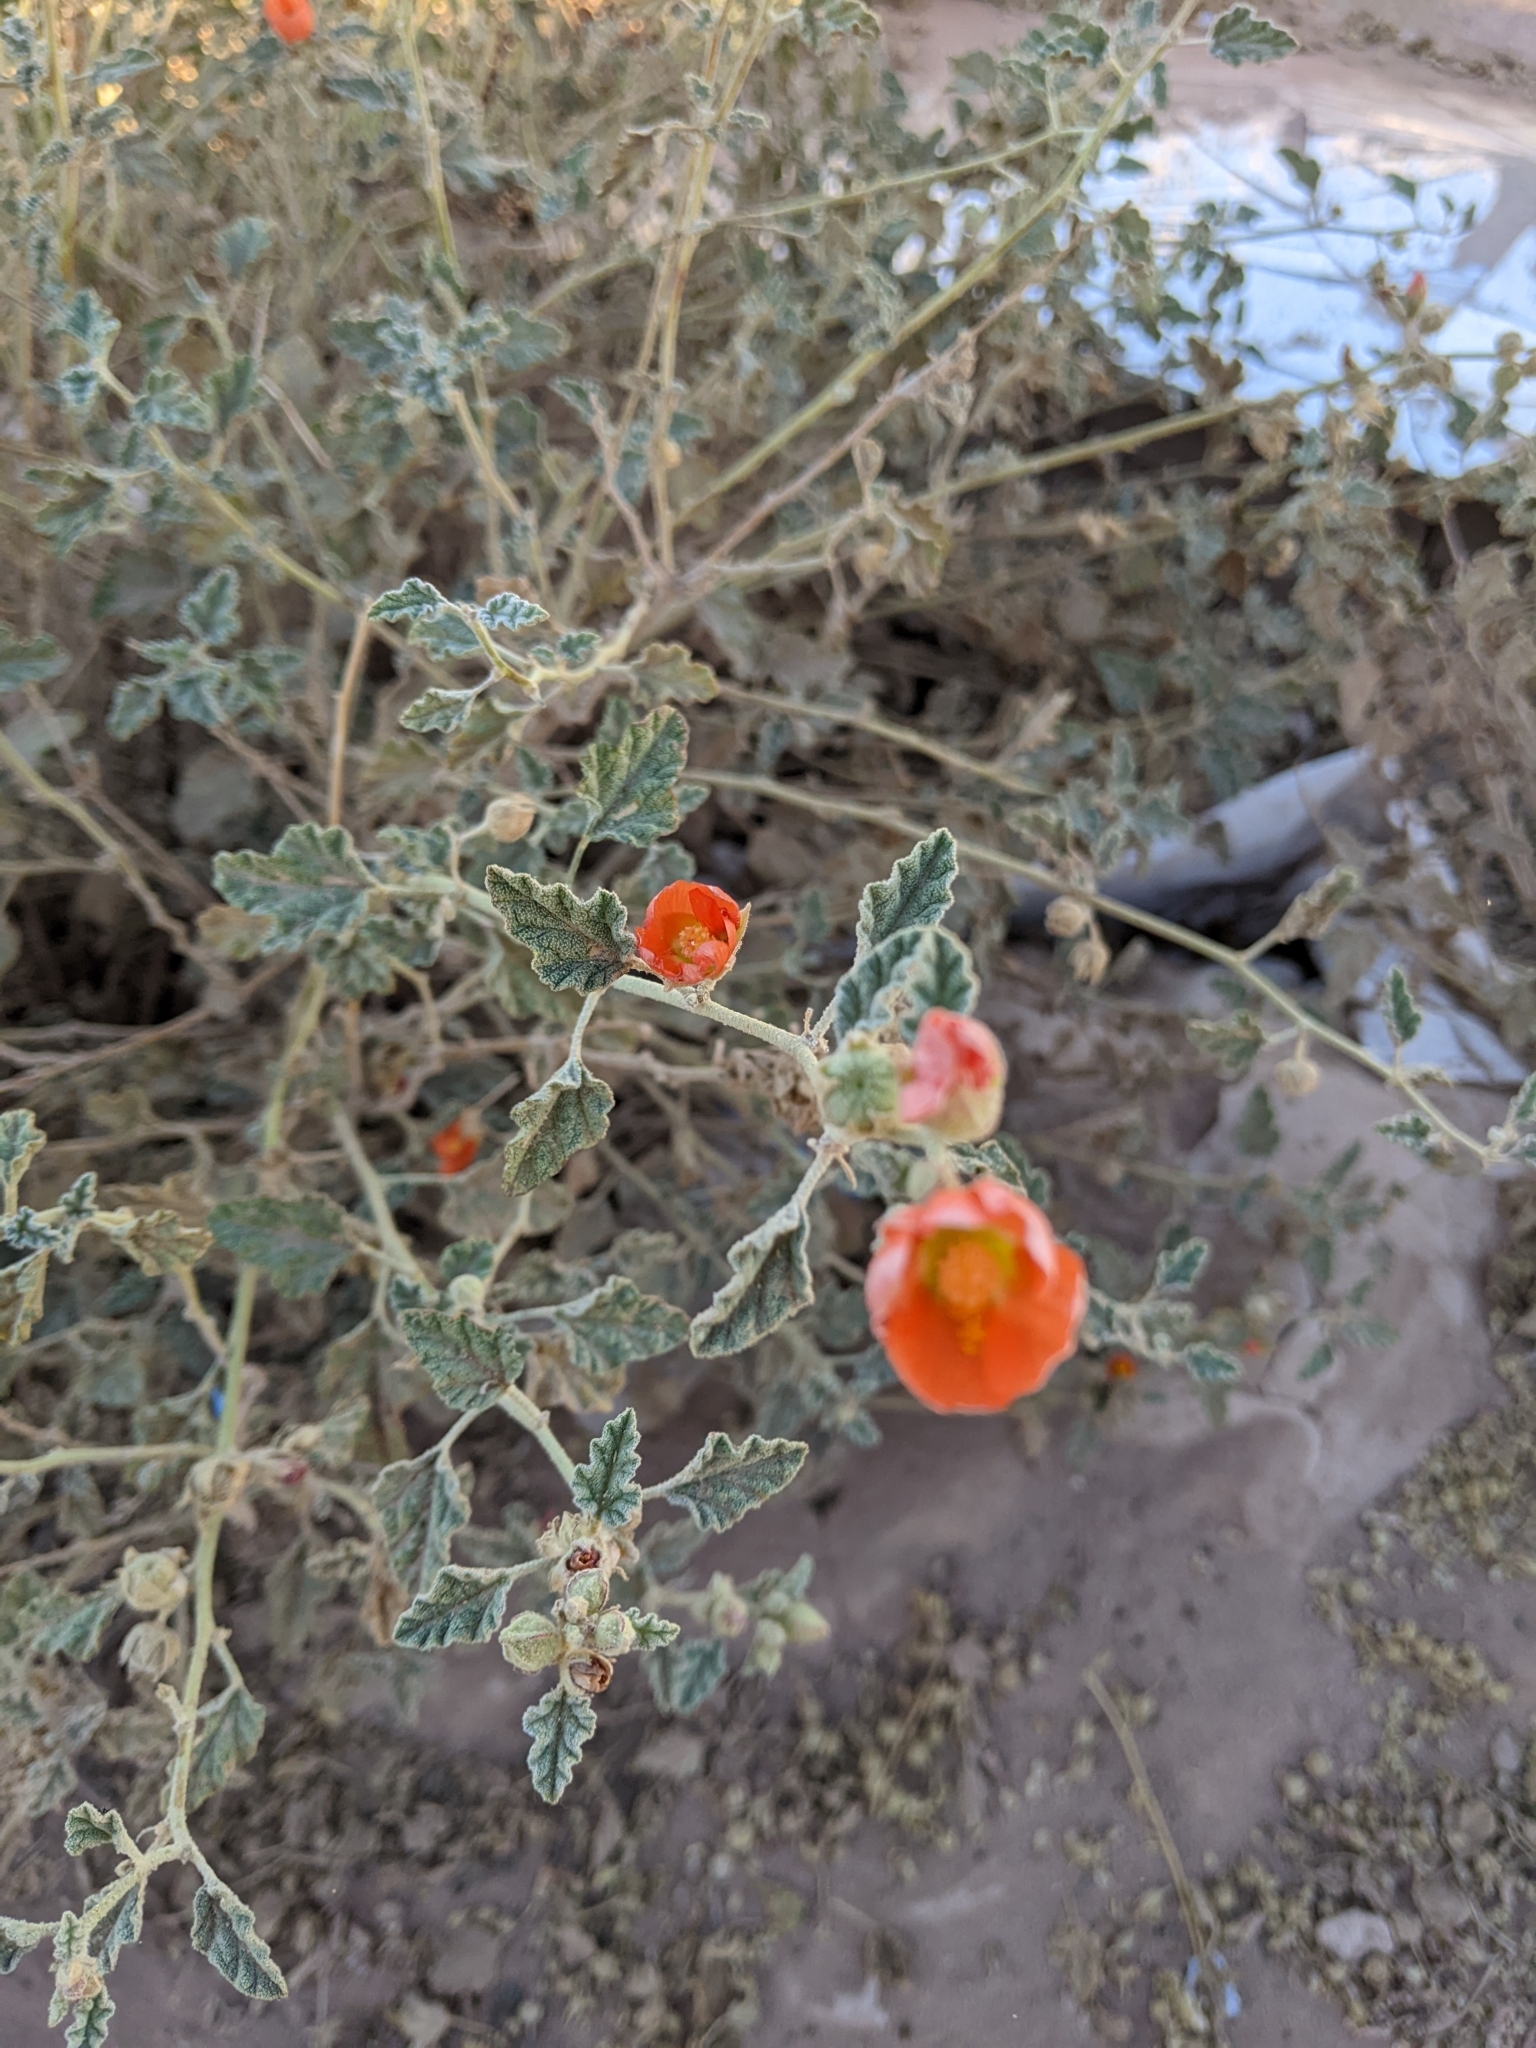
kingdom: Plantae
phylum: Tracheophyta
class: Magnoliopsida
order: Malvales
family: Malvaceae
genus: Sphaeralcea
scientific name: Sphaeralcea ambigua
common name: Apricot globe-mallow
